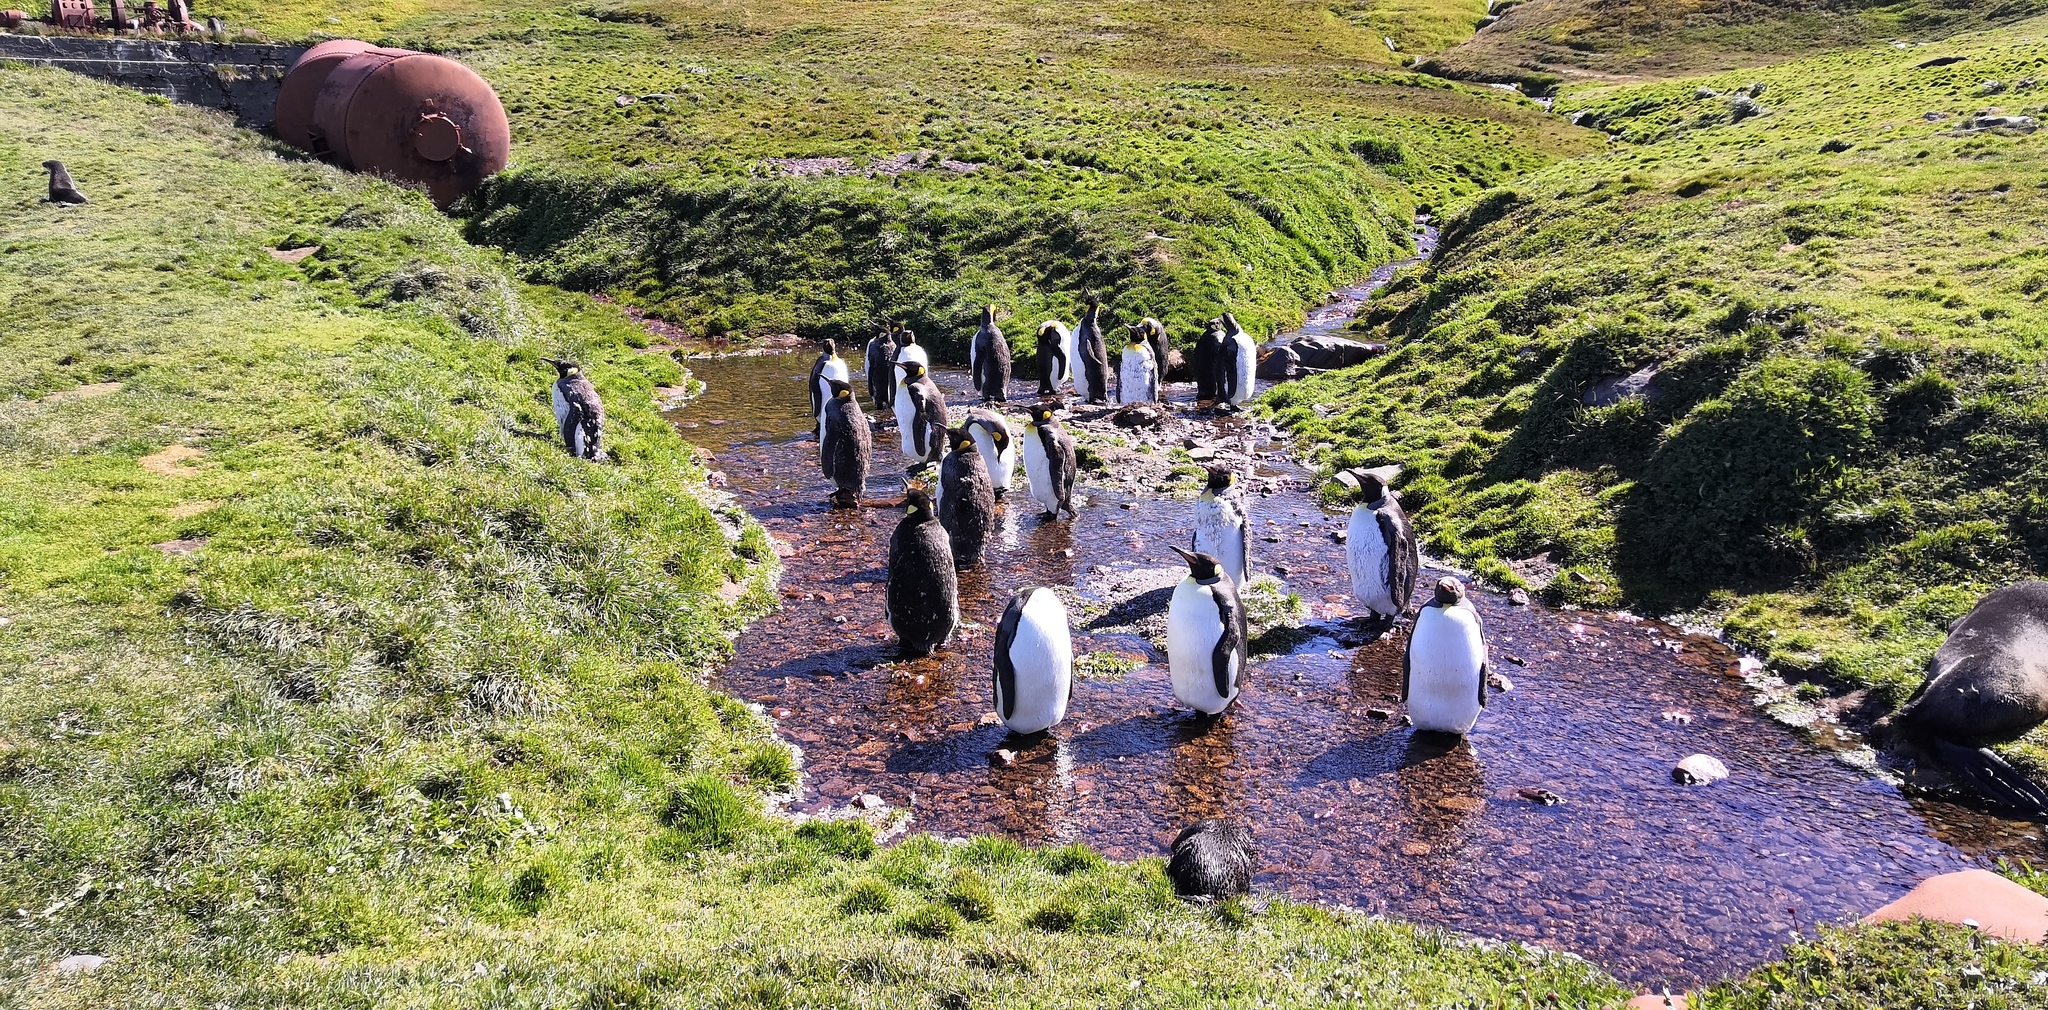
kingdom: Animalia
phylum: Chordata
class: Aves
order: Sphenisciformes
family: Spheniscidae
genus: Aptenodytes
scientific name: Aptenodytes patagonicus
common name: King penguin
